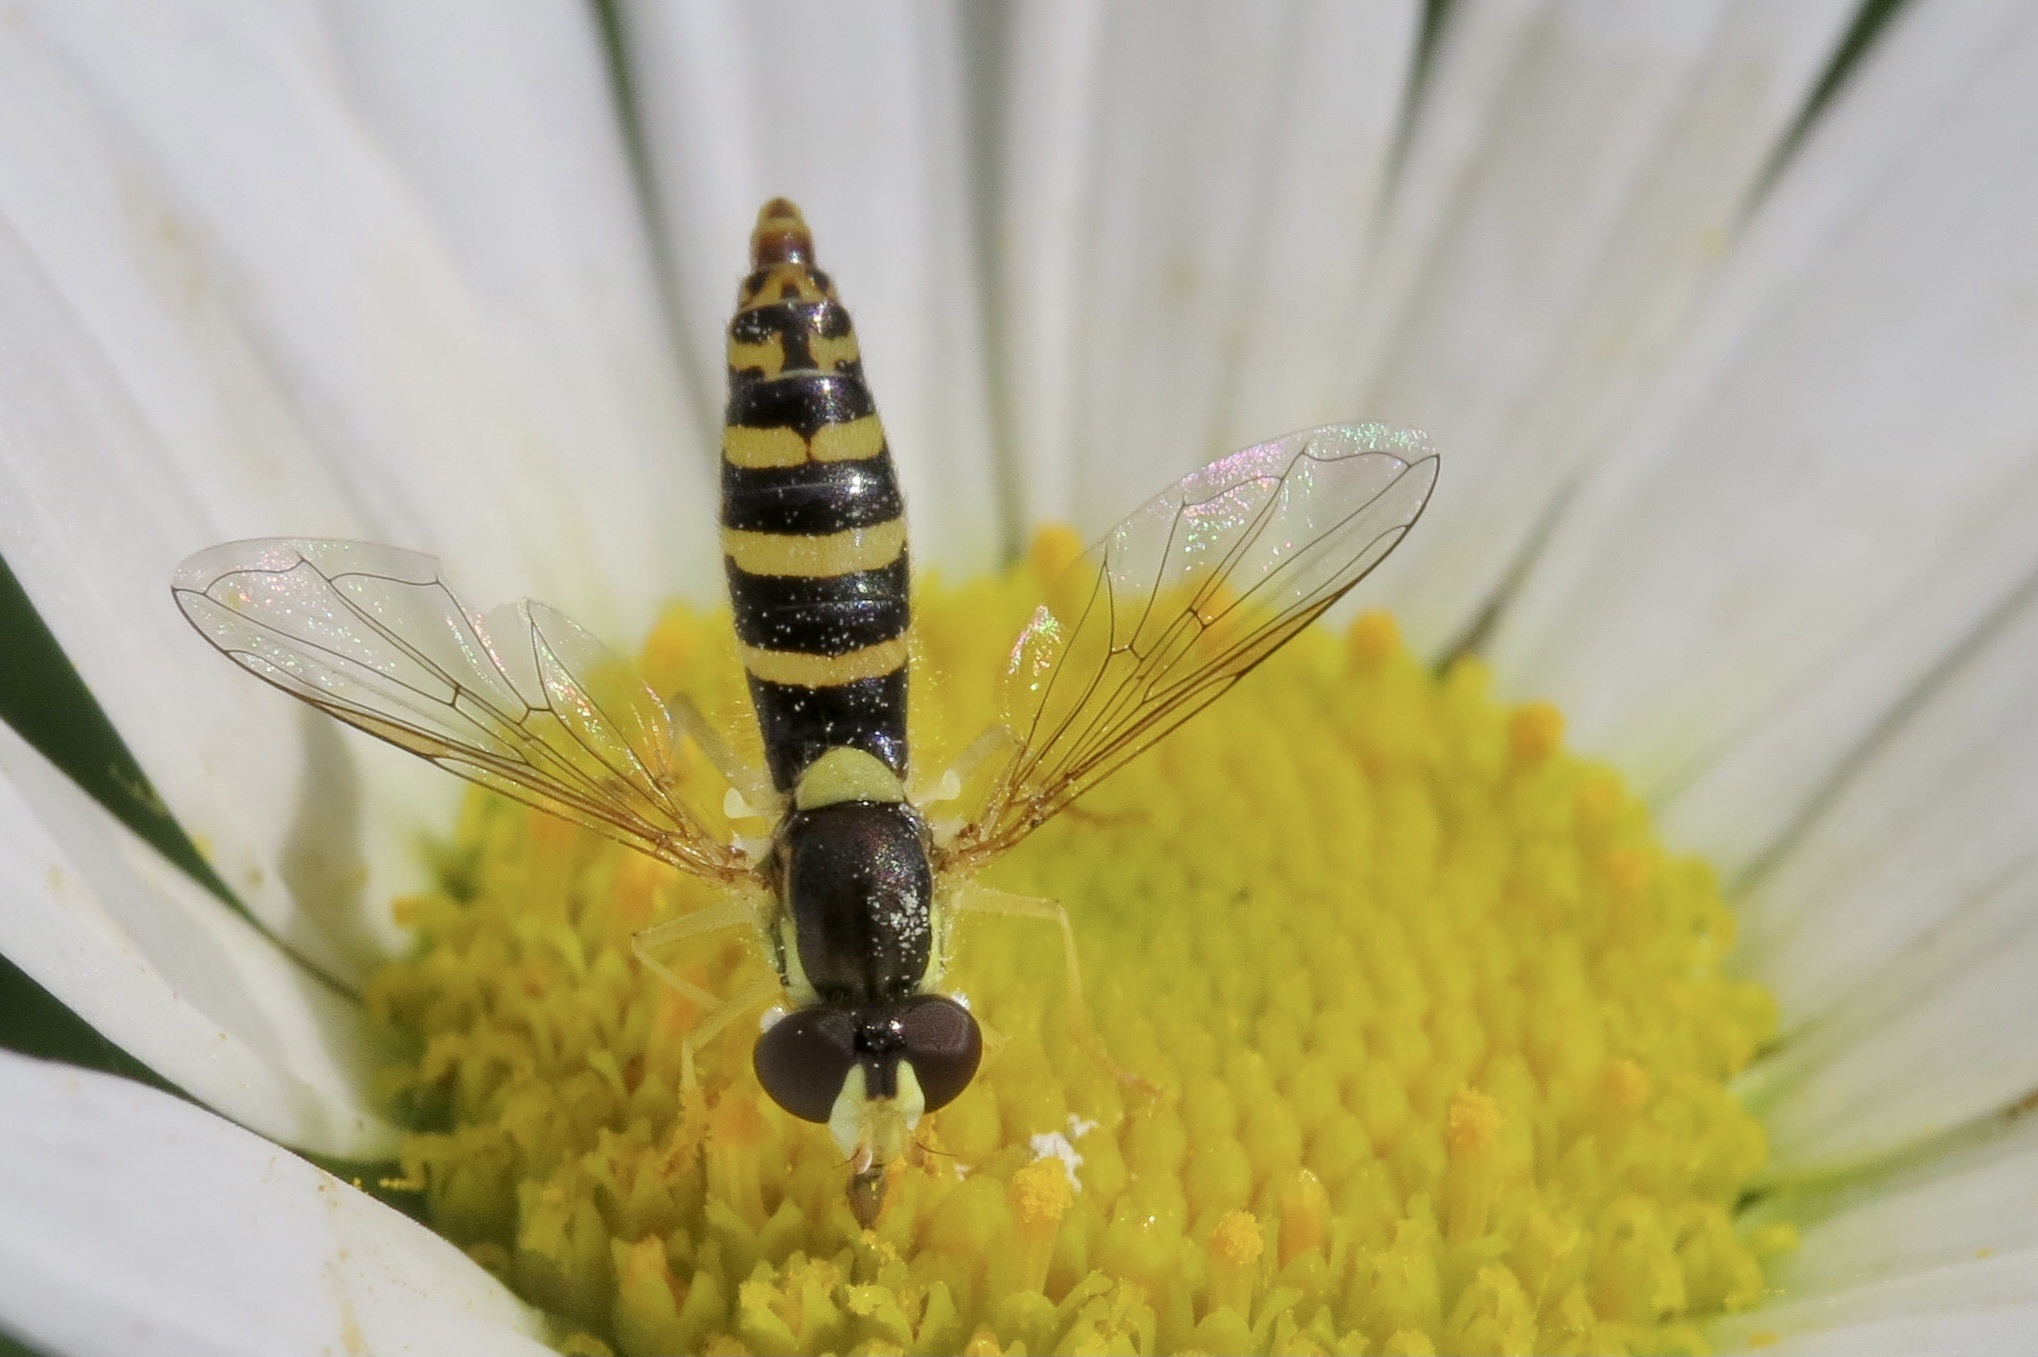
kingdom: Animalia
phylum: Arthropoda
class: Insecta
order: Diptera
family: Syrphidae
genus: Sphaerophoria
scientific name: Sphaerophoria
